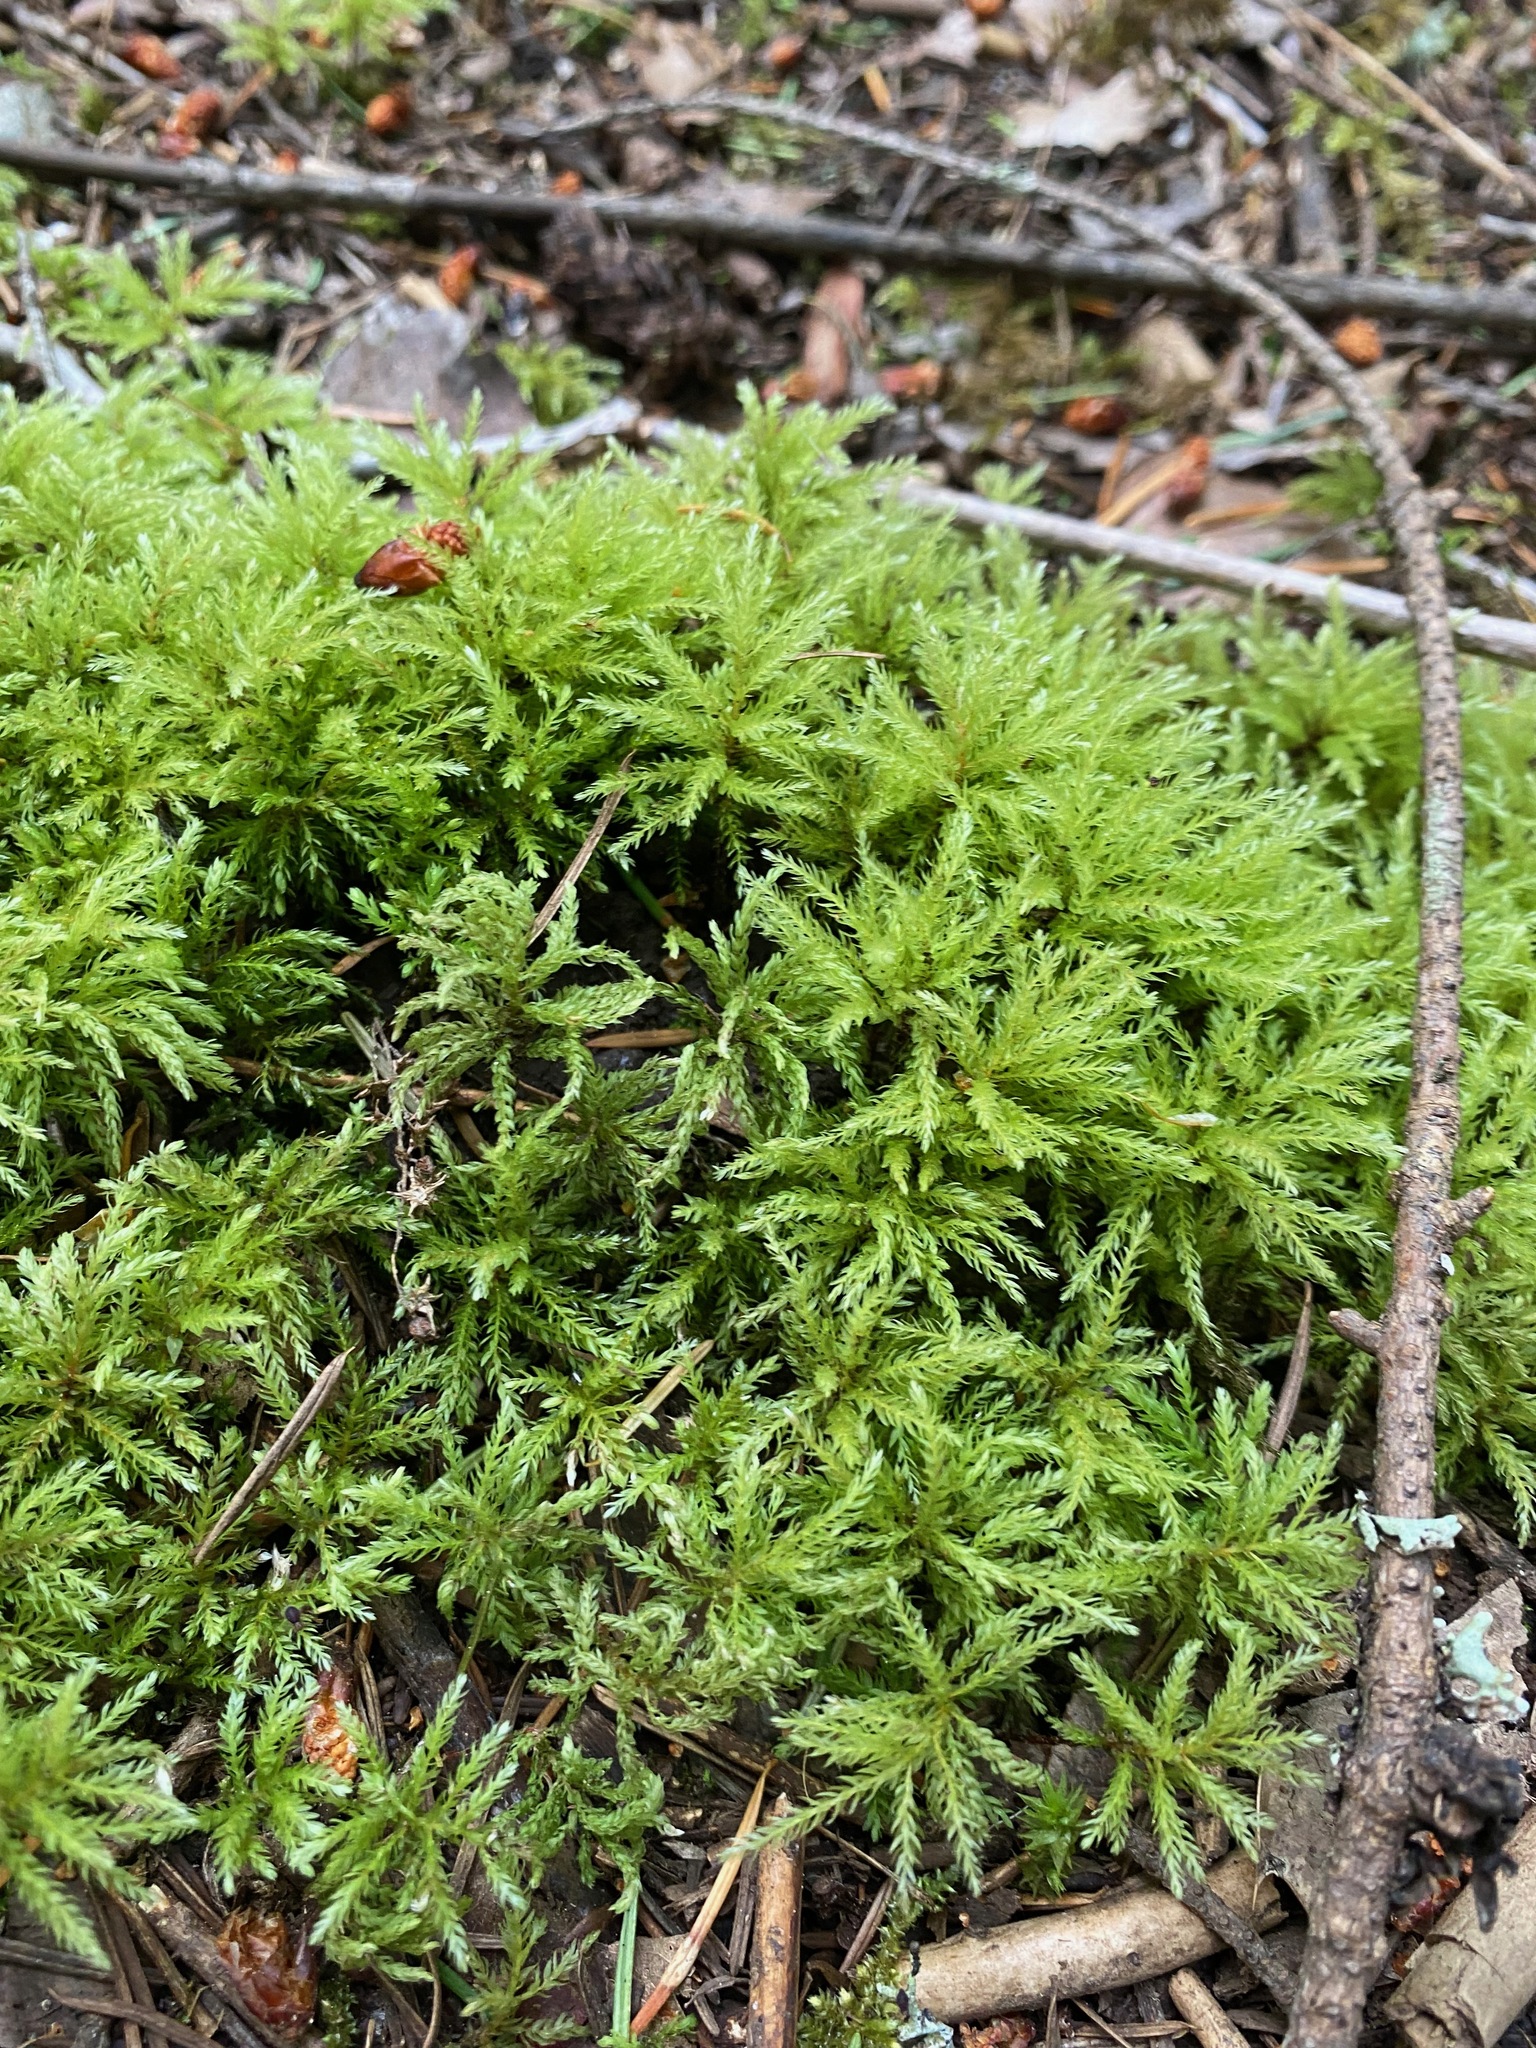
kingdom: Plantae
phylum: Bryophyta
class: Bryopsida
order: Bryales
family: Mniaceae
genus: Leucolepis
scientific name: Leucolepis acanthoneura
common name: Leucolepis umbrella moss
